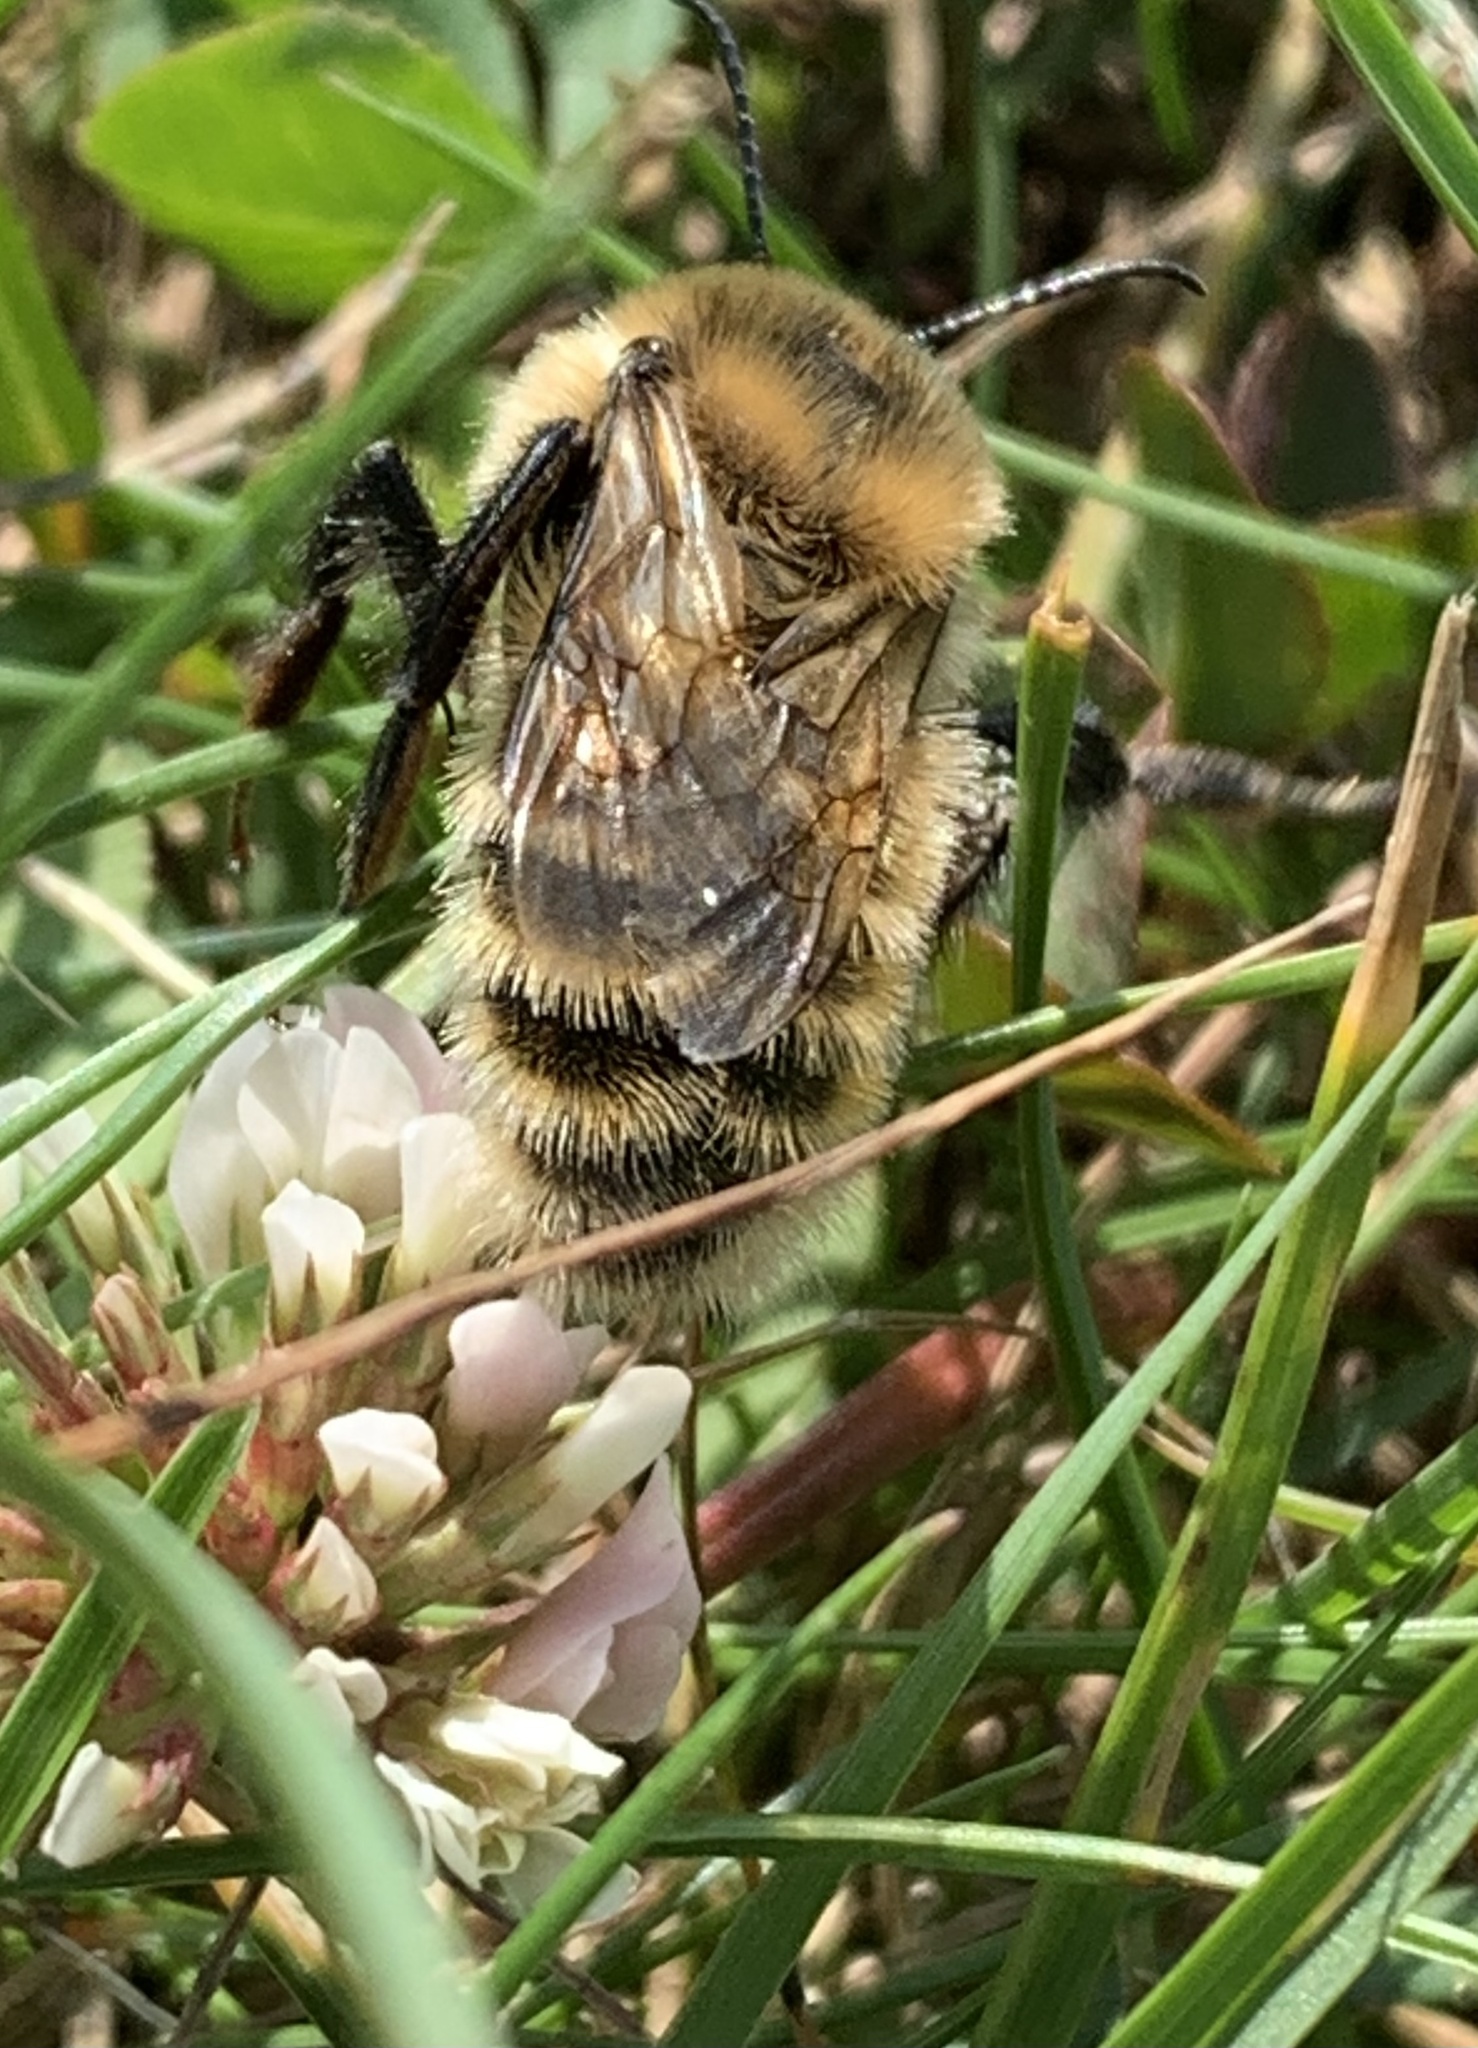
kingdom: Animalia
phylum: Arthropoda
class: Insecta
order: Hymenoptera
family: Apidae
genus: Bombus
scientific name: Bombus rufocinctus
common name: Red-belted bumble bee
